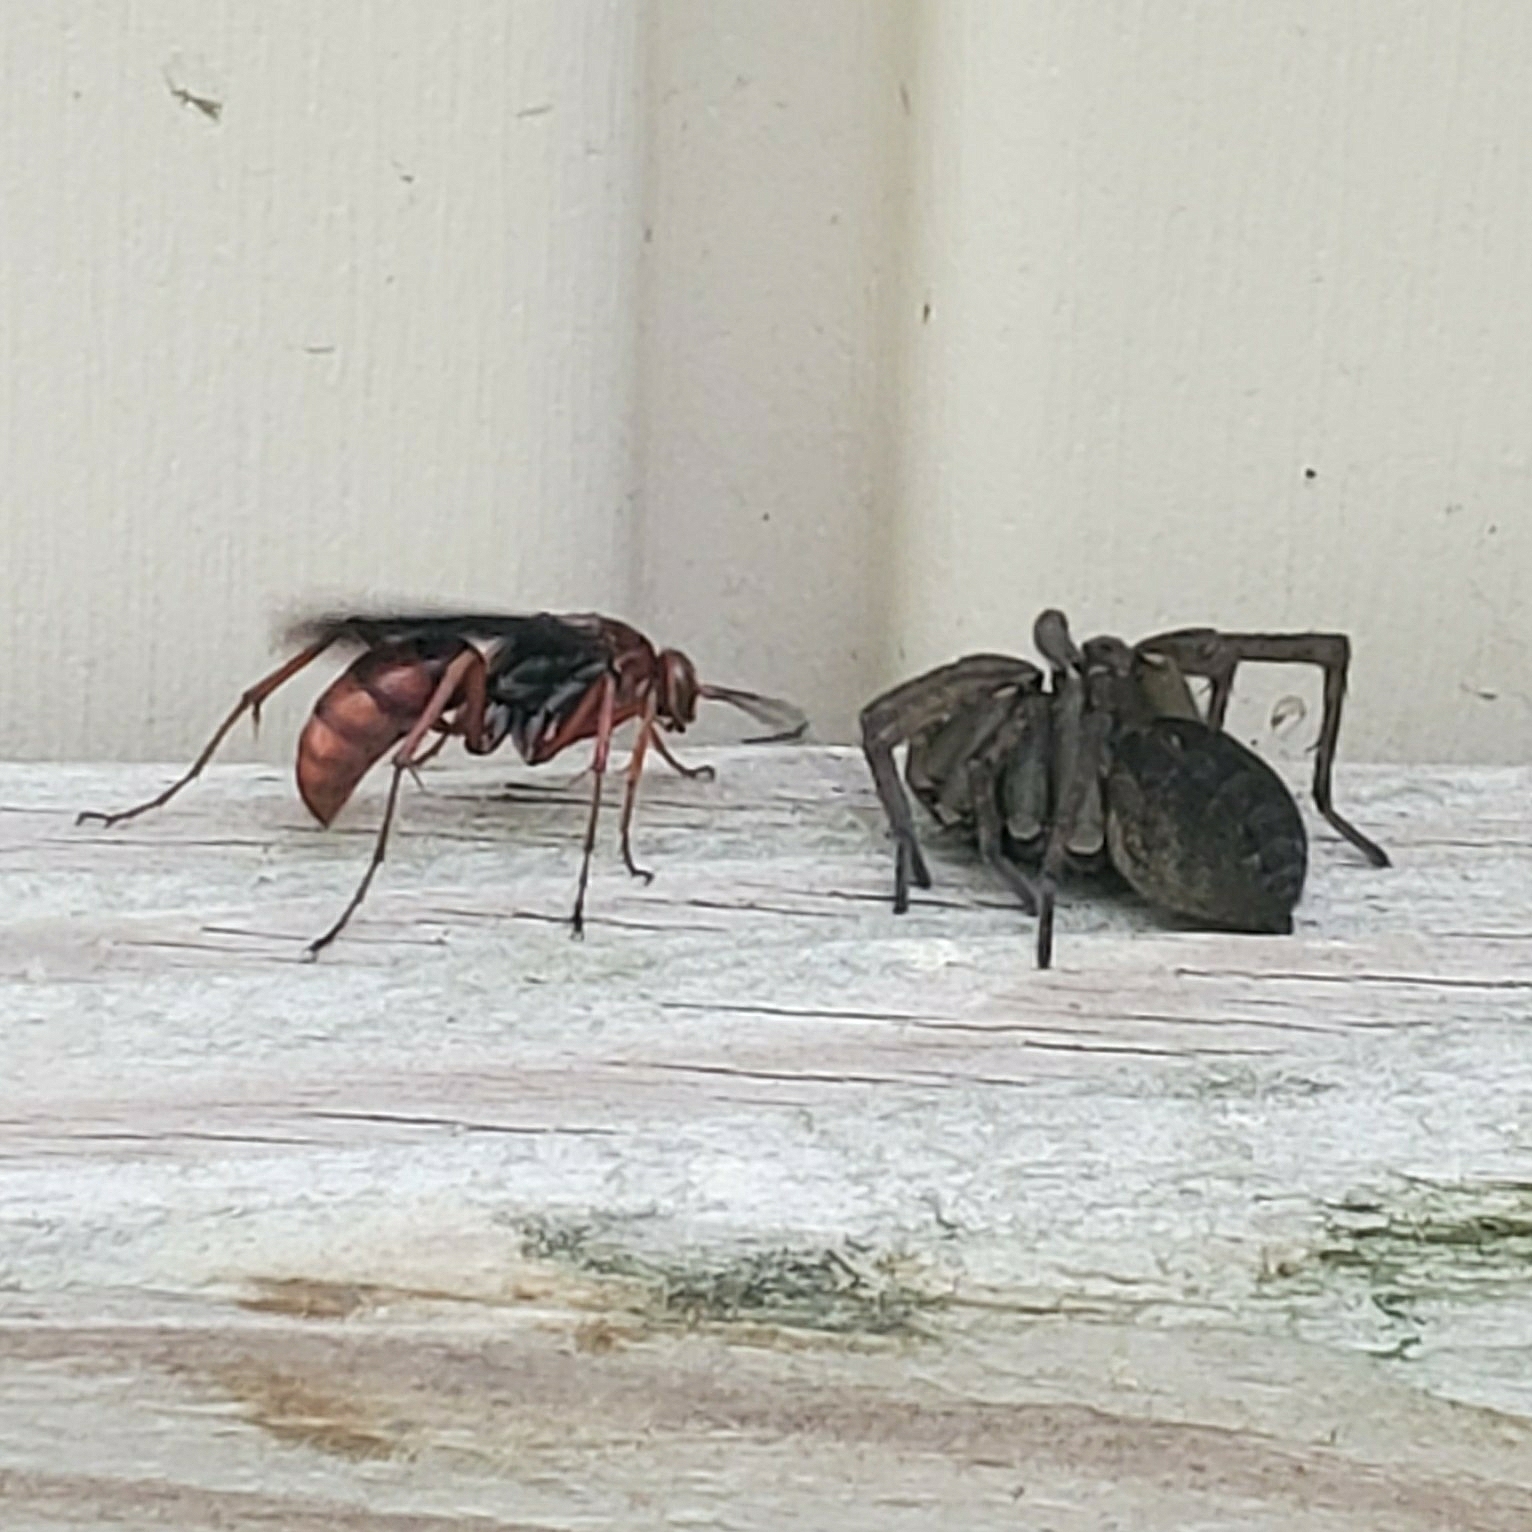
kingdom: Animalia
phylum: Arthropoda
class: Insecta
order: Hymenoptera
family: Pompilidae
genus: Tachypompilus
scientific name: Tachypompilus ferrugineus
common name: Rusty spider wasp
